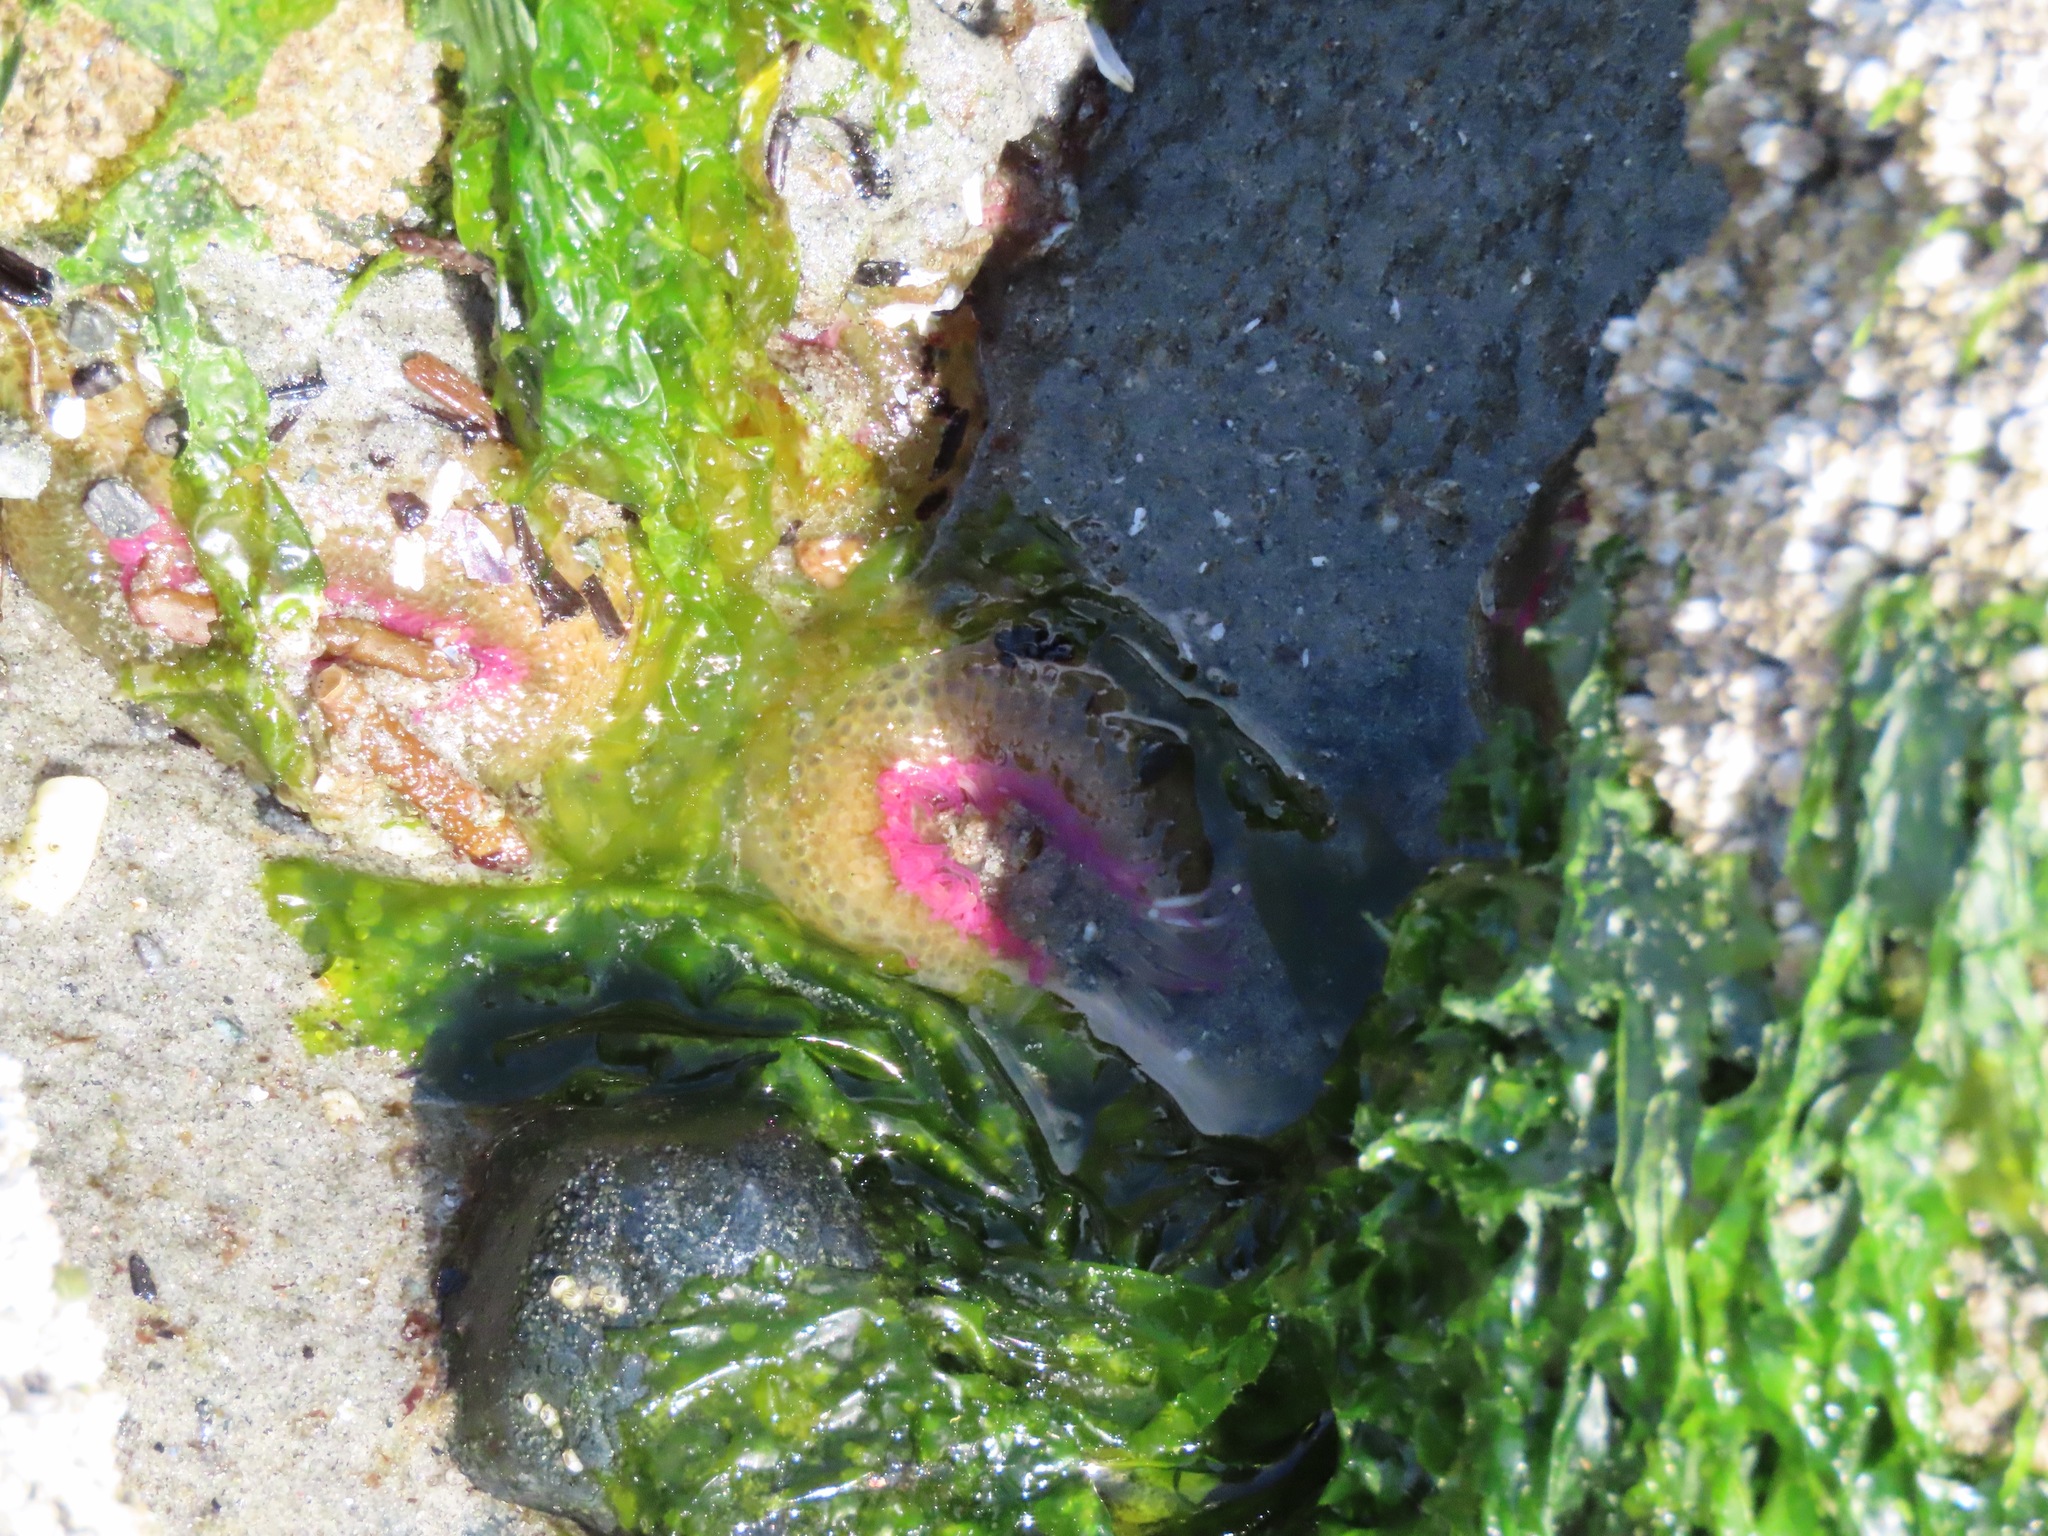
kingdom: Animalia
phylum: Cnidaria
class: Anthozoa
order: Actiniaria
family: Actiniidae
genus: Anthopleura
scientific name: Anthopleura elegantissima
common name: Clonal anemone
